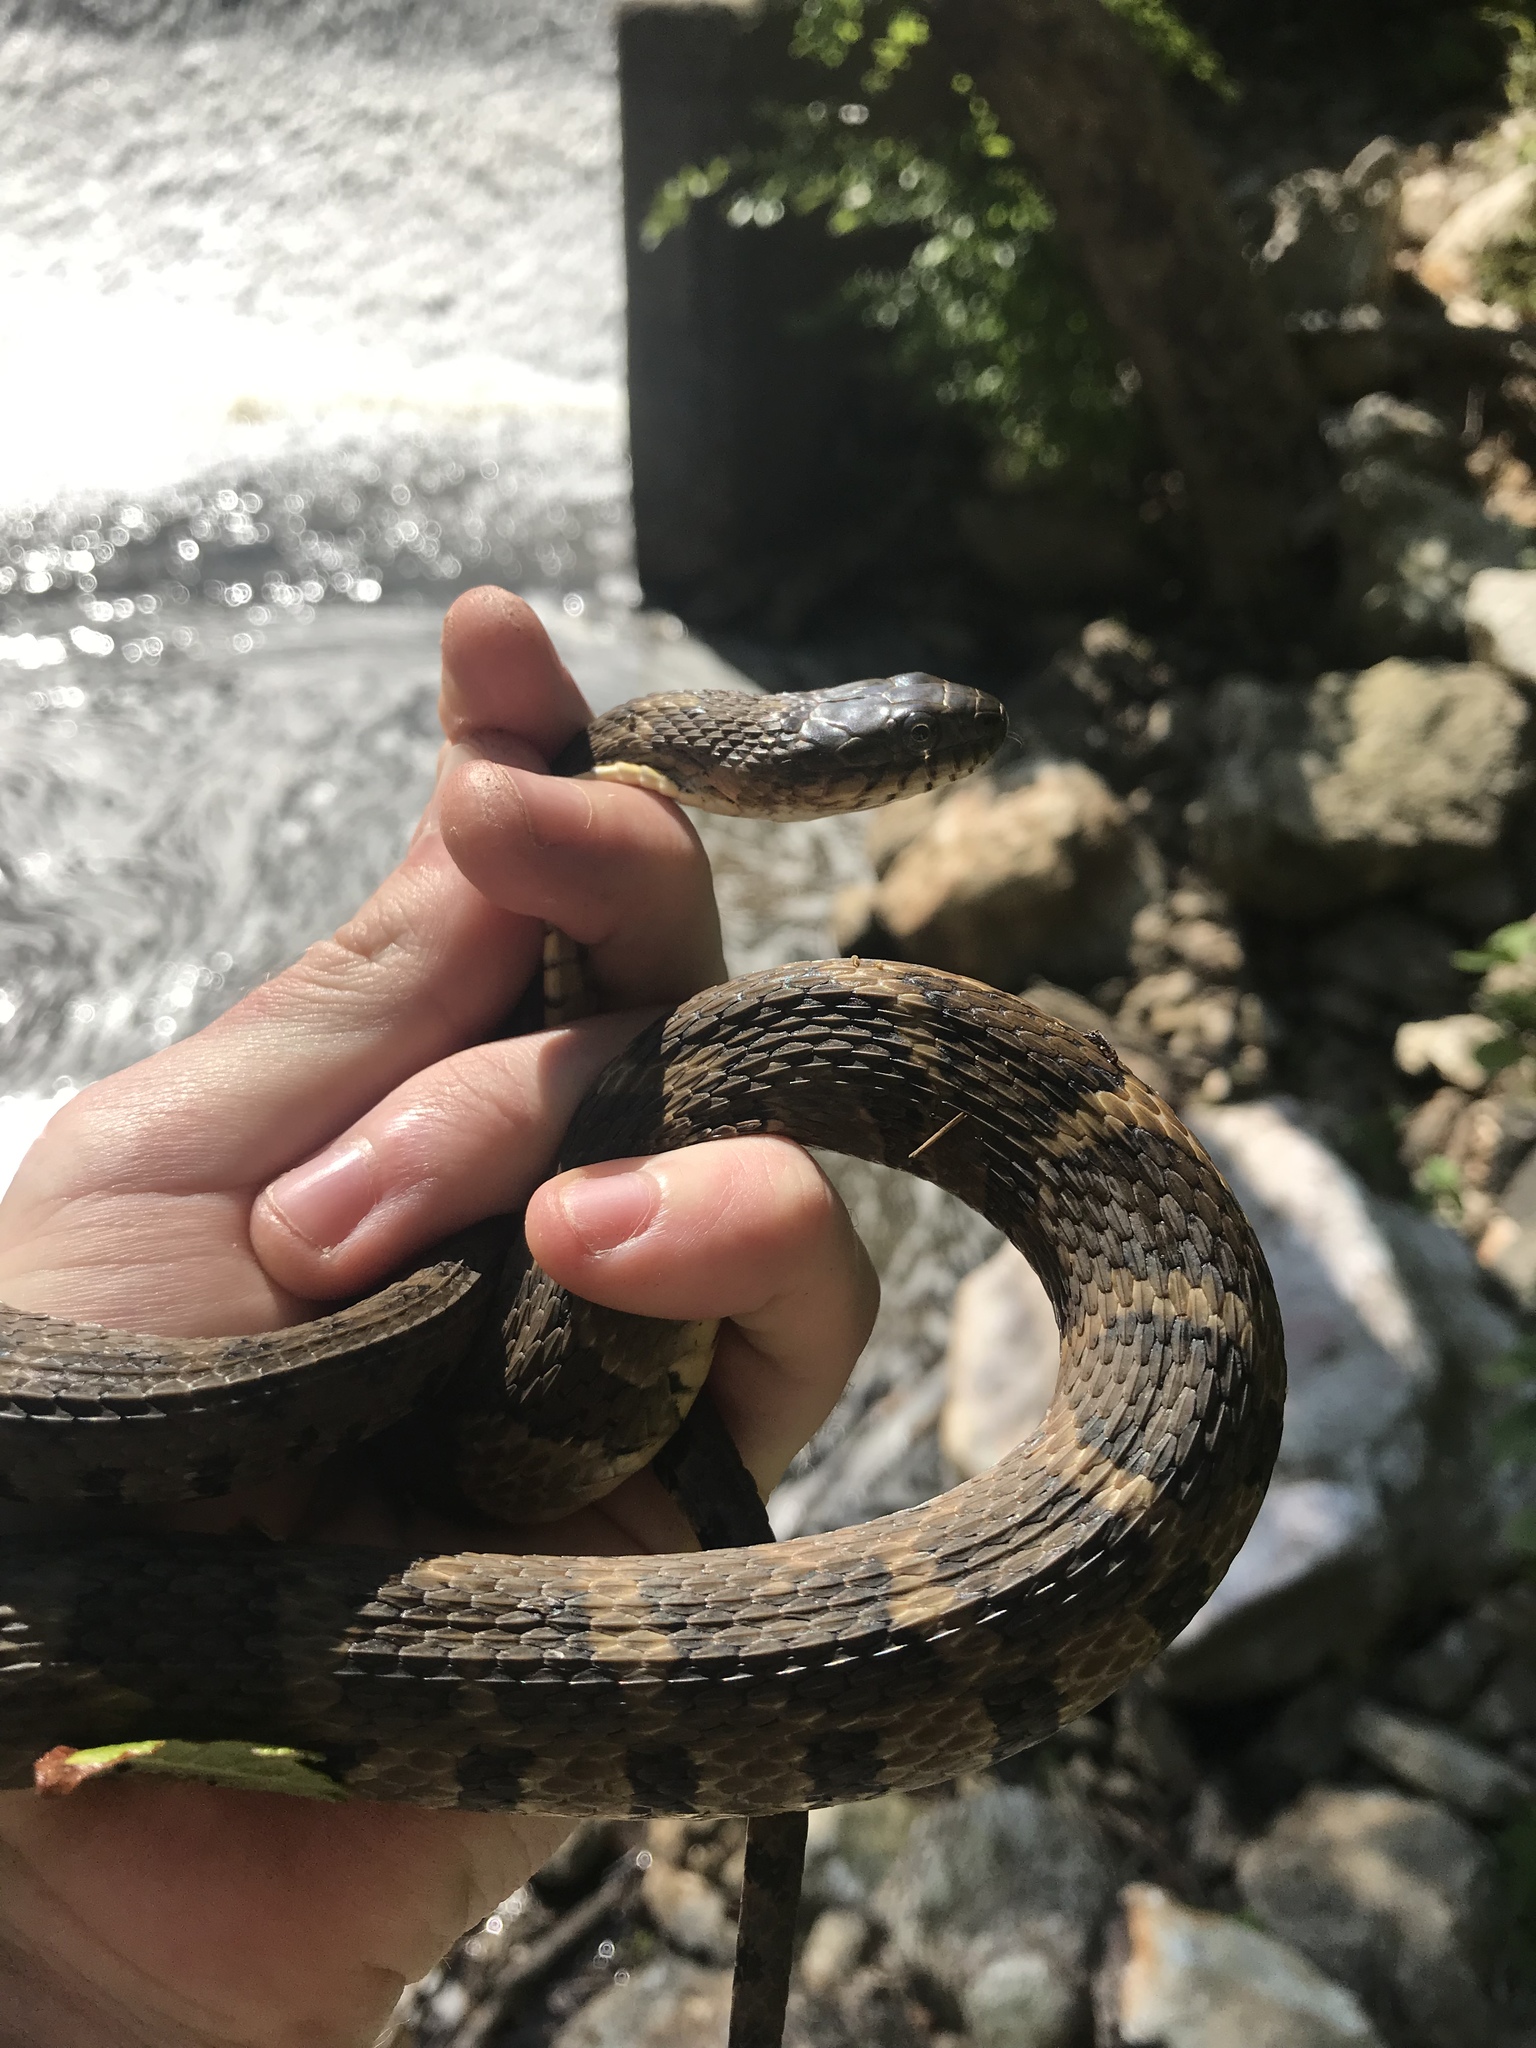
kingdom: Animalia
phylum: Chordata
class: Squamata
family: Colubridae
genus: Nerodia
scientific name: Nerodia sipedon
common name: Northern water snake
